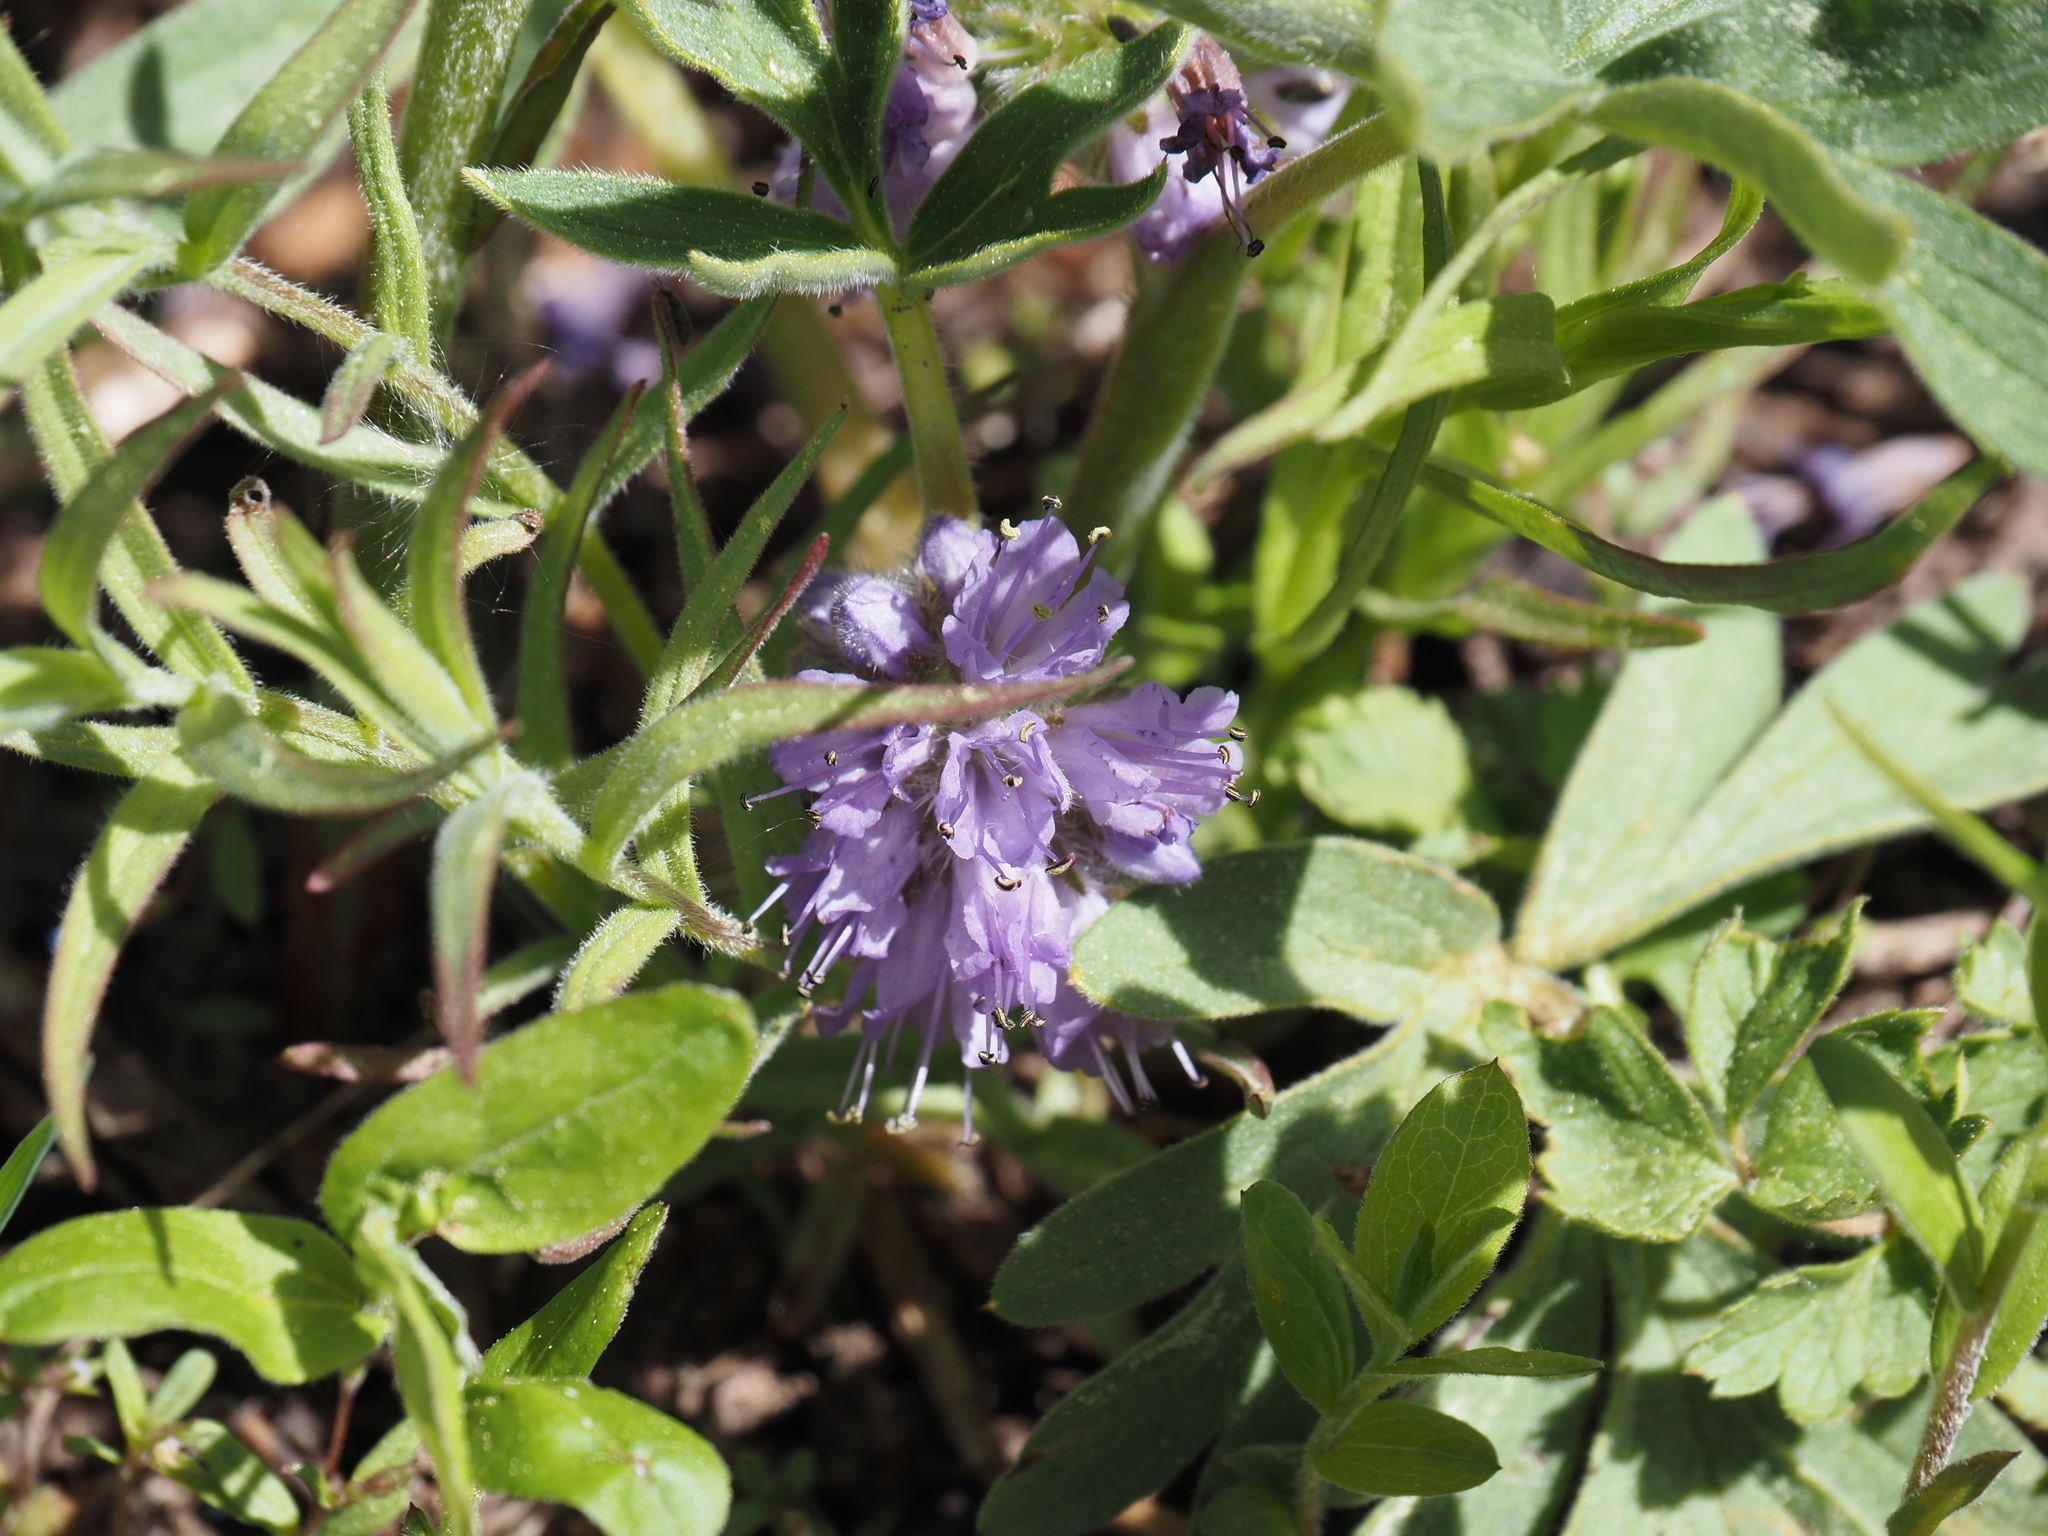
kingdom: Plantae
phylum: Tracheophyta
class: Magnoliopsida
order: Boraginales
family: Hydrophyllaceae
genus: Hydrophyllum
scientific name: Hydrophyllum capitatum
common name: Woollen-breeches
